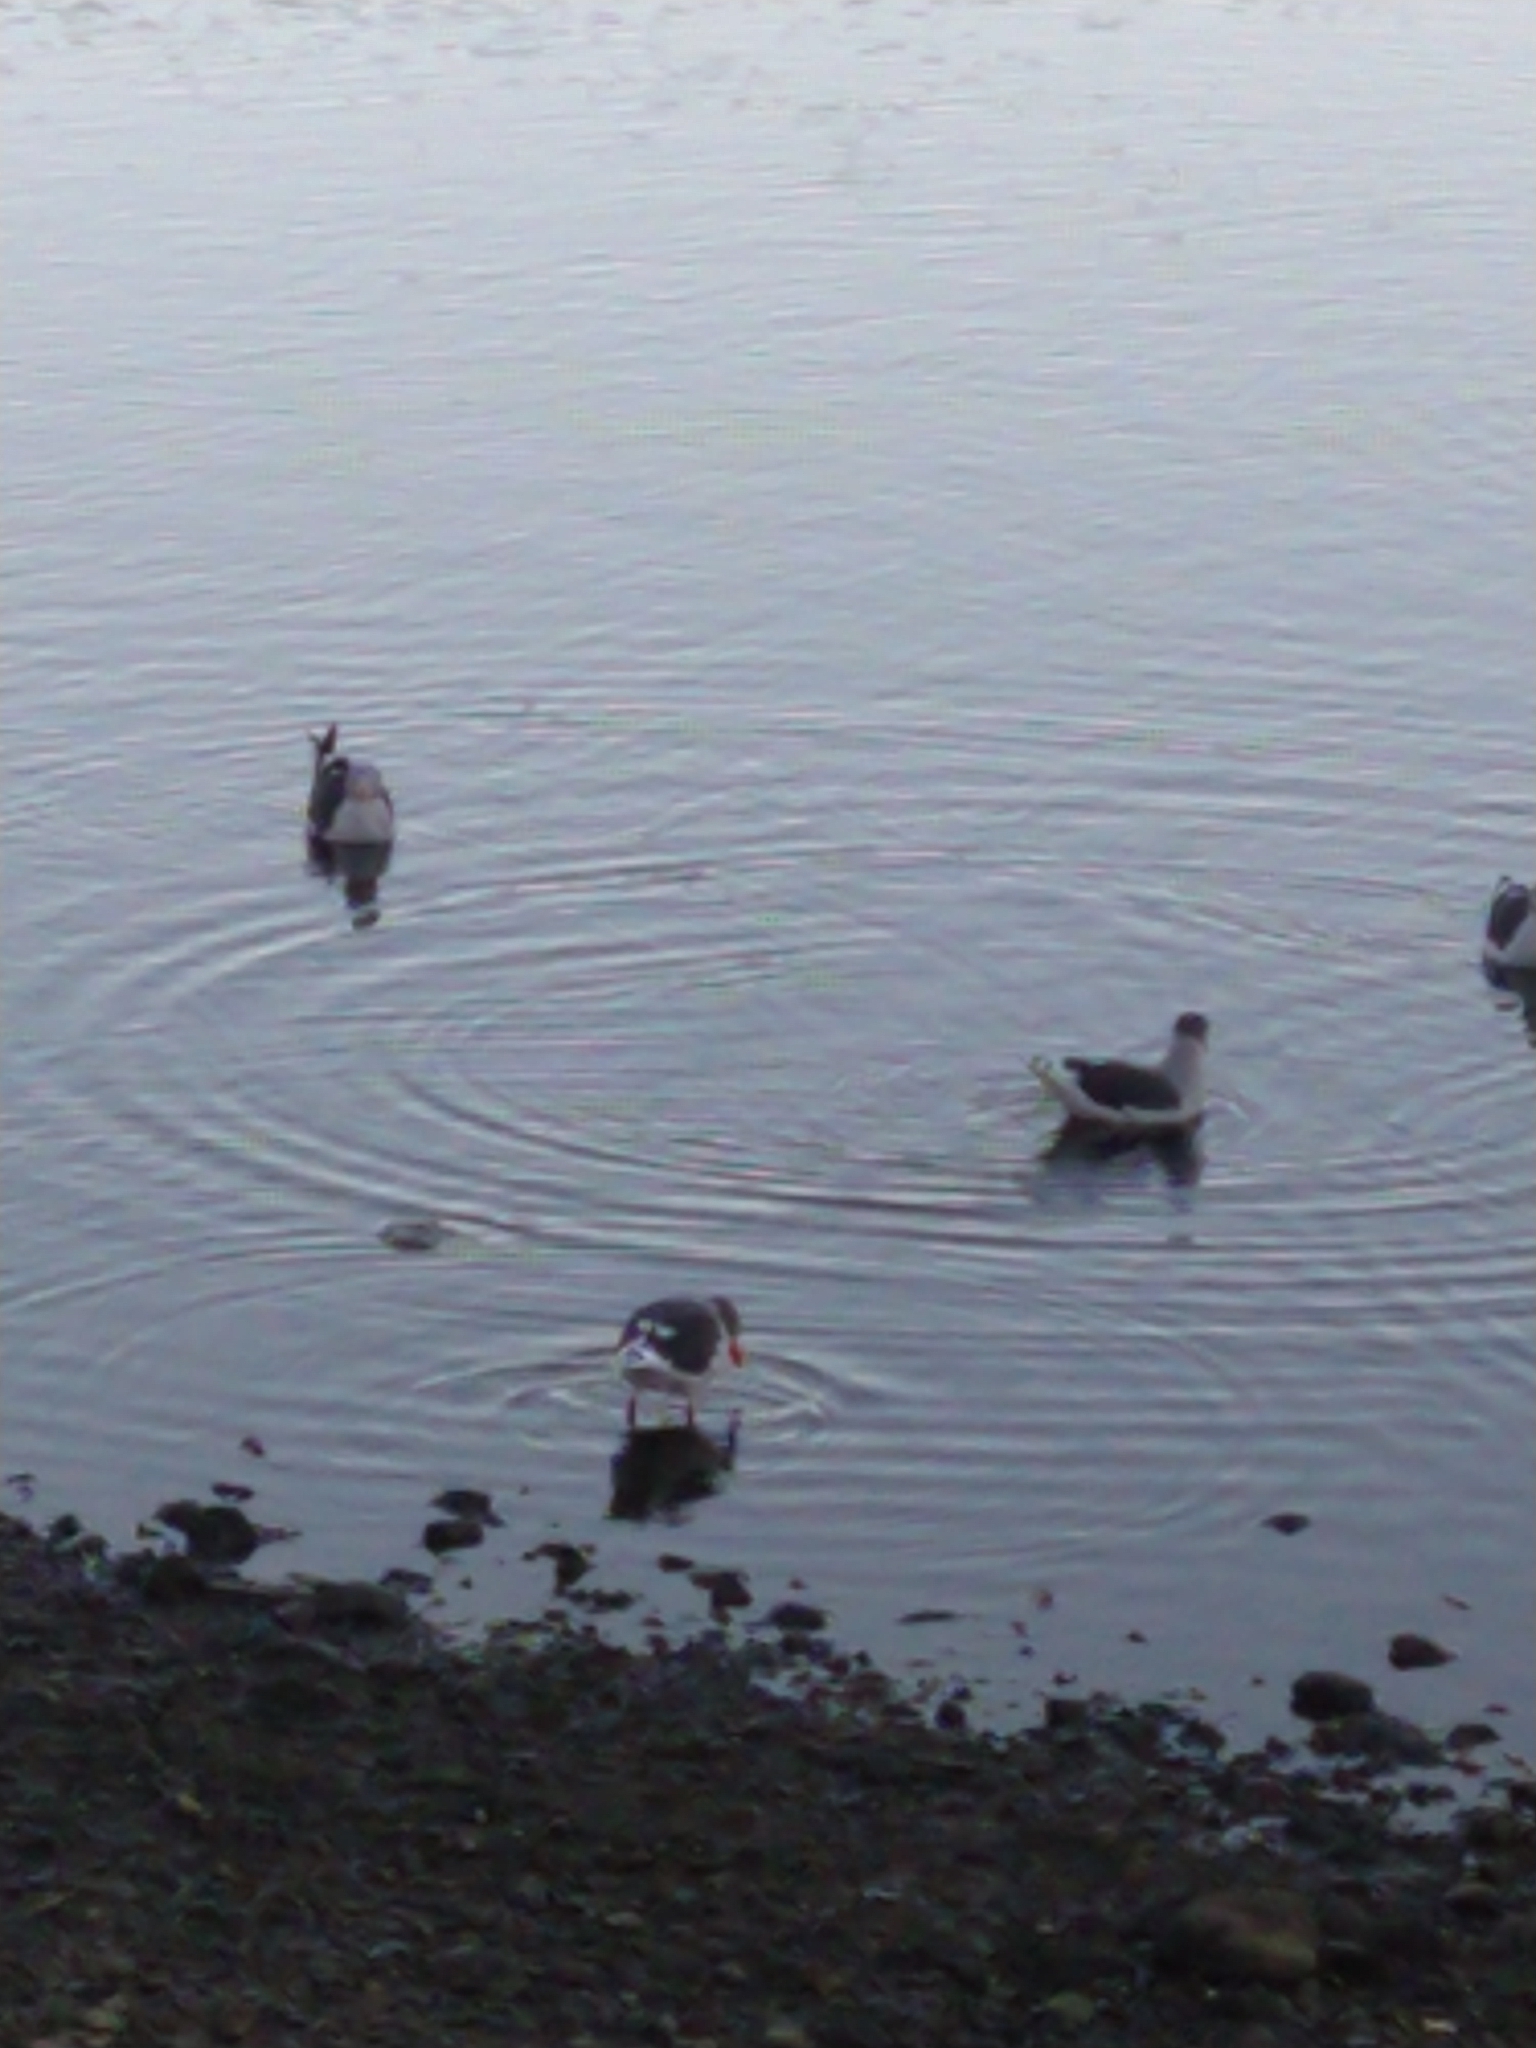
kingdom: Animalia
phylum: Chordata
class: Aves
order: Charadriiformes
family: Laridae
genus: Leucophaeus
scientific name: Leucophaeus scoresbii
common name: Dolphin gull
